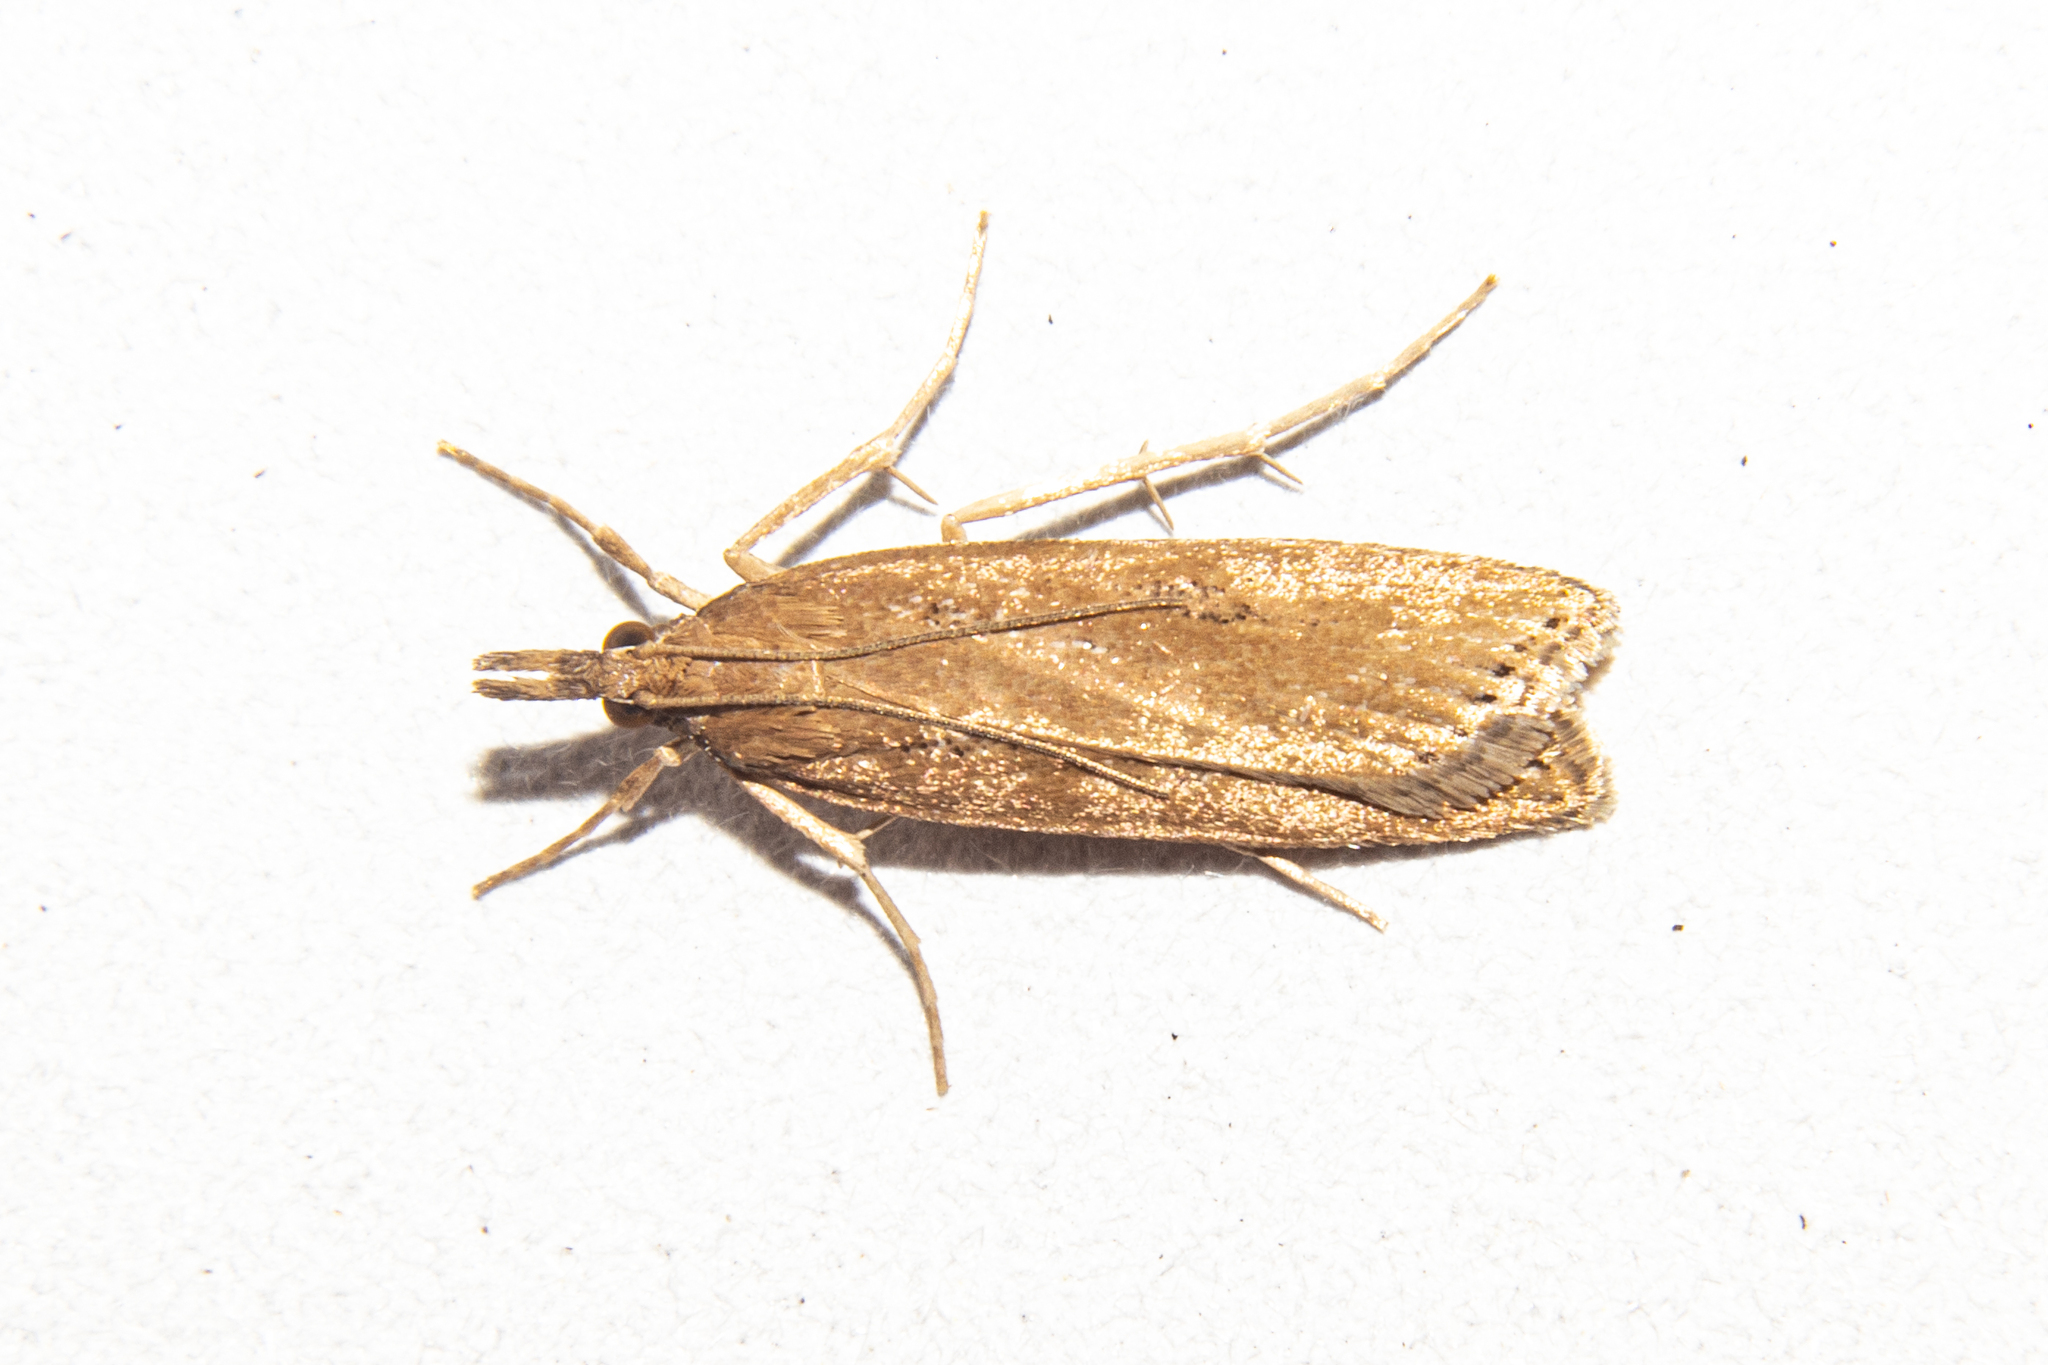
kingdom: Animalia
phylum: Arthropoda
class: Insecta
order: Lepidoptera
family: Crambidae
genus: Eudonia
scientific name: Eudonia sabulosella
